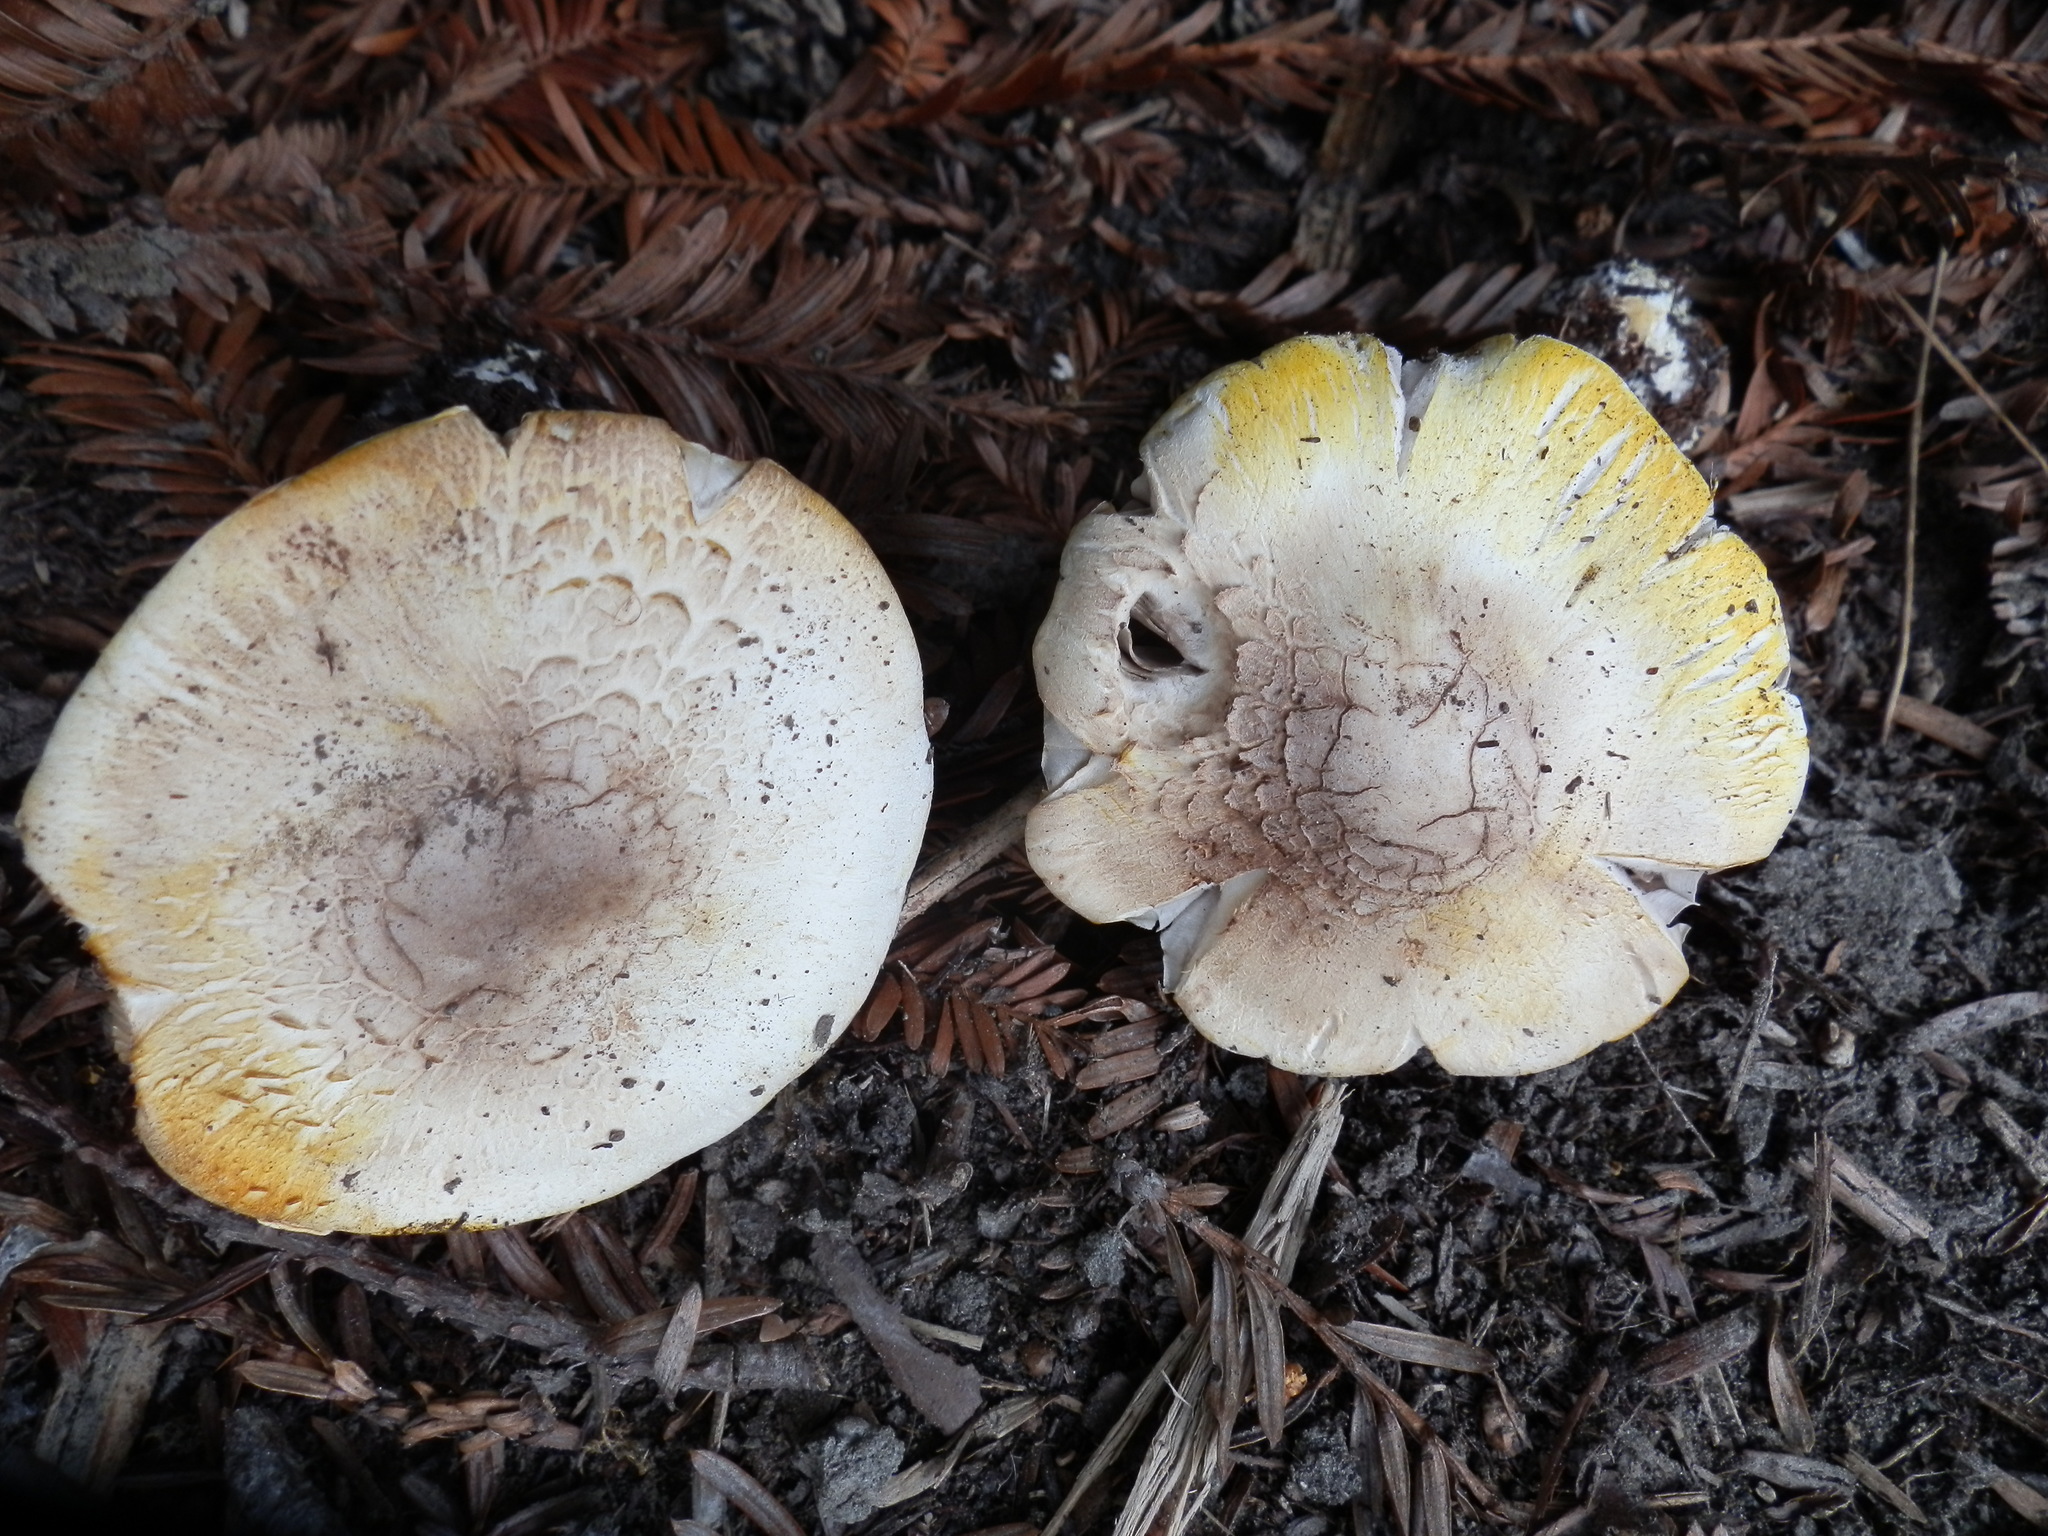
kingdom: Fungi
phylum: Basidiomycota
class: Agaricomycetes
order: Agaricales
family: Agaricaceae
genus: Agaricus
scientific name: Agaricus xanthodermus
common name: Yellow stainer
